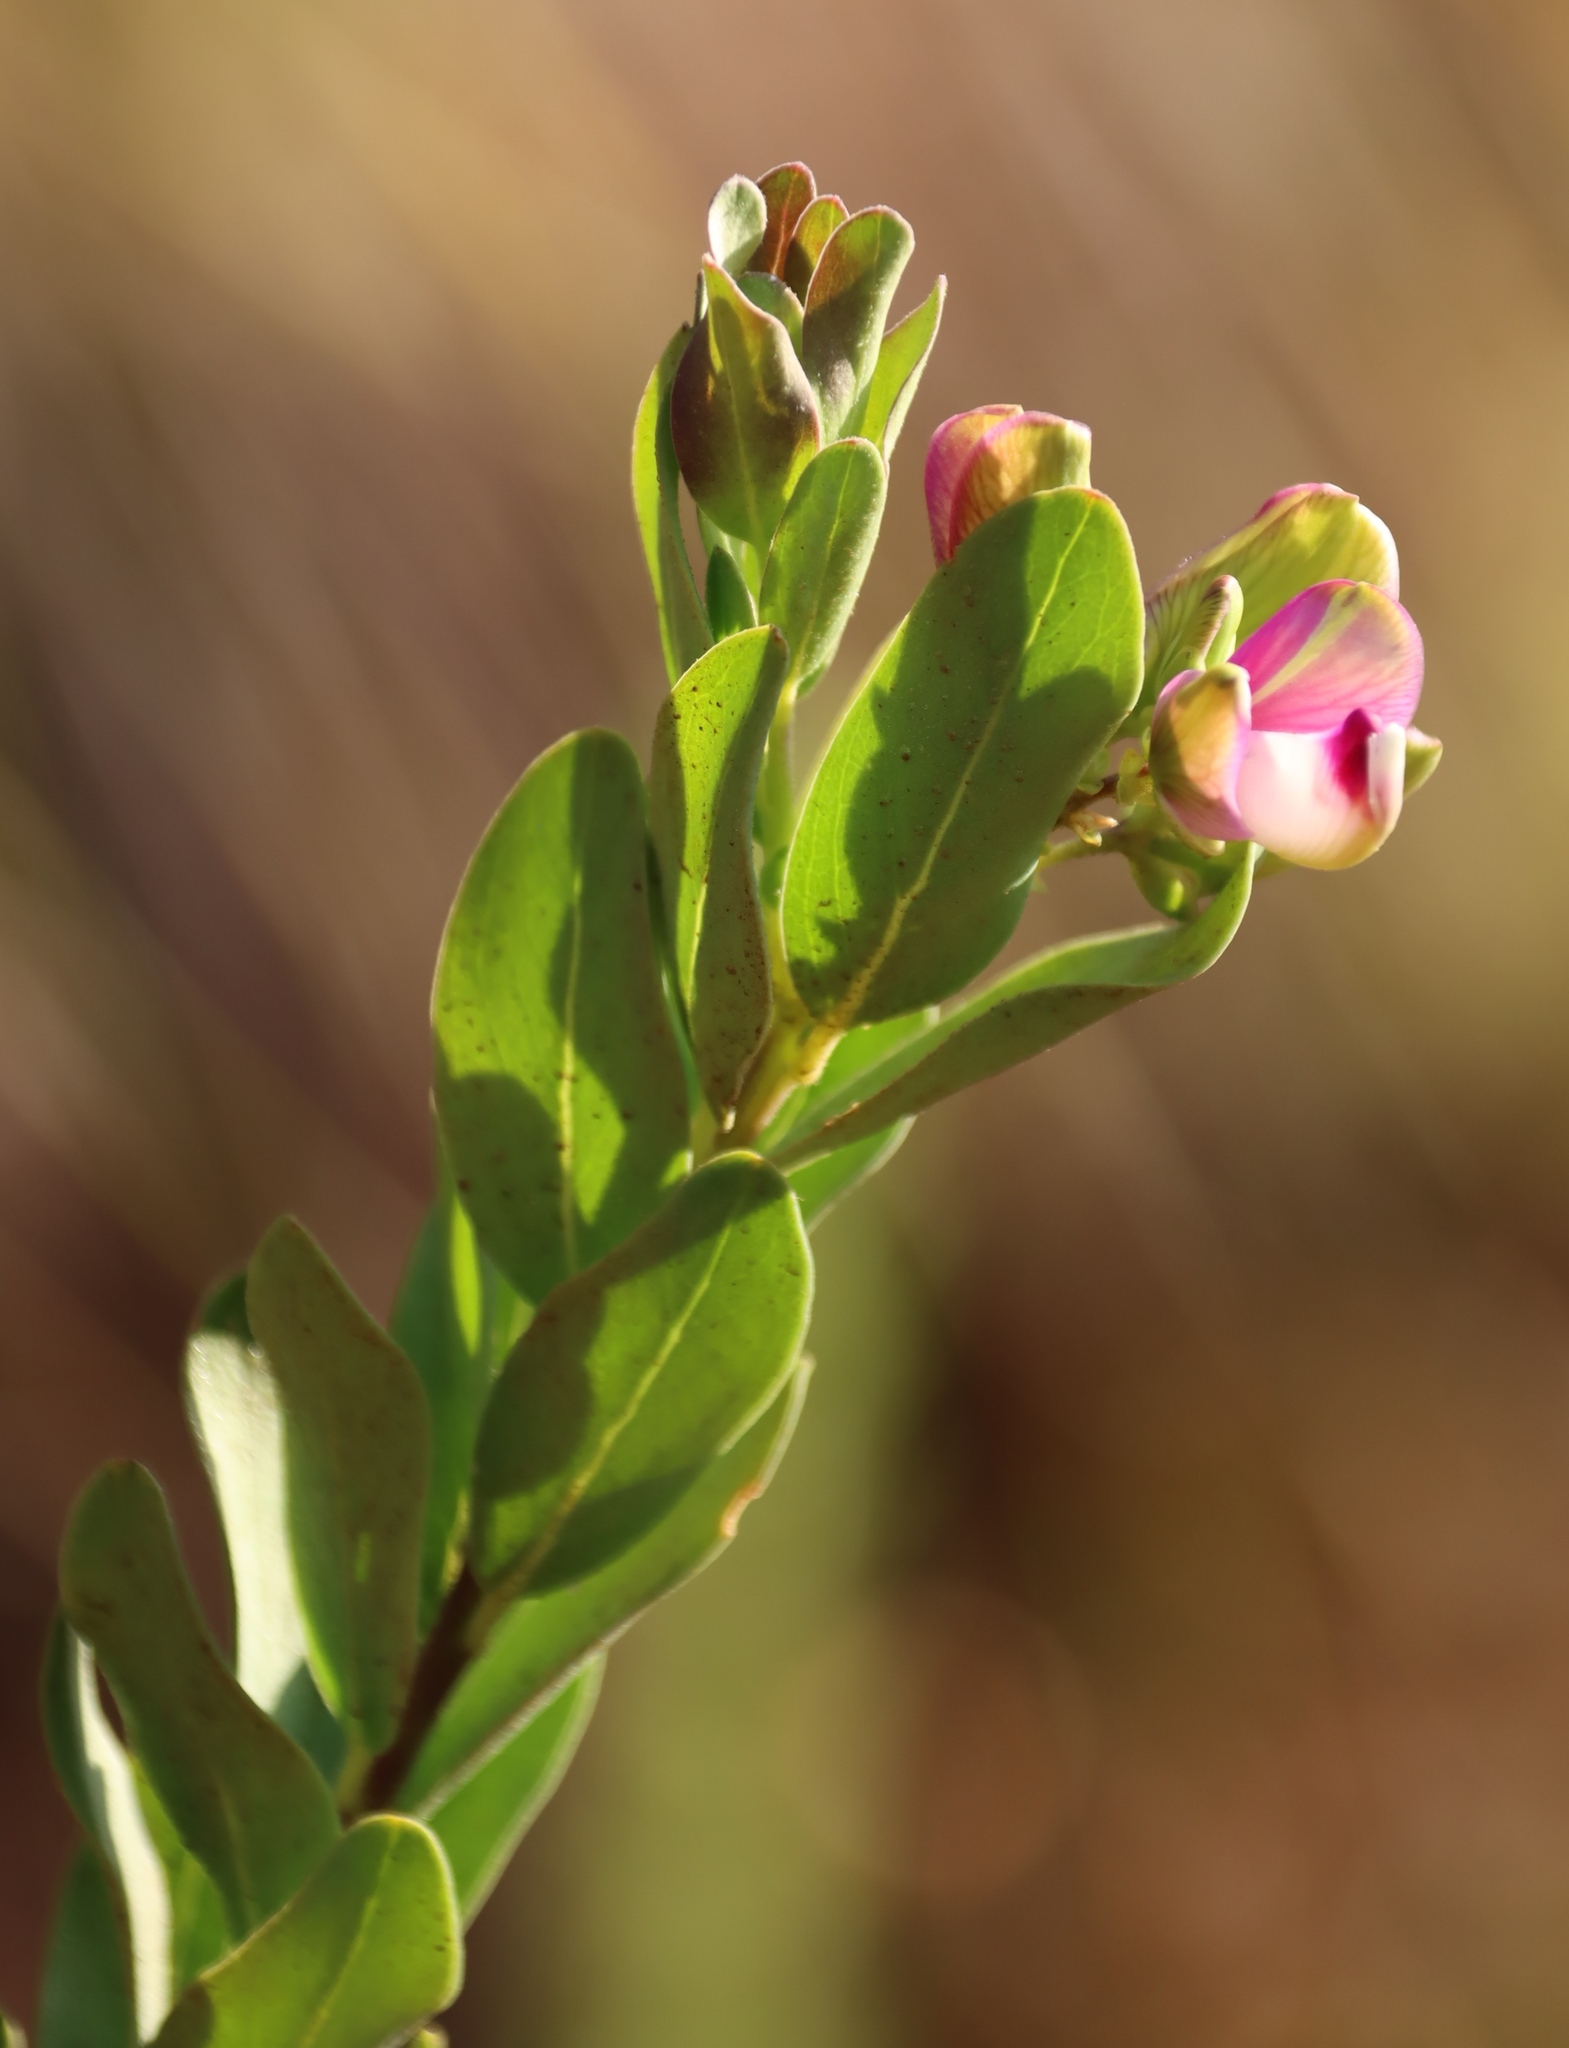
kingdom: Plantae
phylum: Tracheophyta
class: Magnoliopsida
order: Fabales
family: Polygalaceae
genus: Polygala
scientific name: Polygala myrtifolia
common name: Myrtle-leaf milkwort
